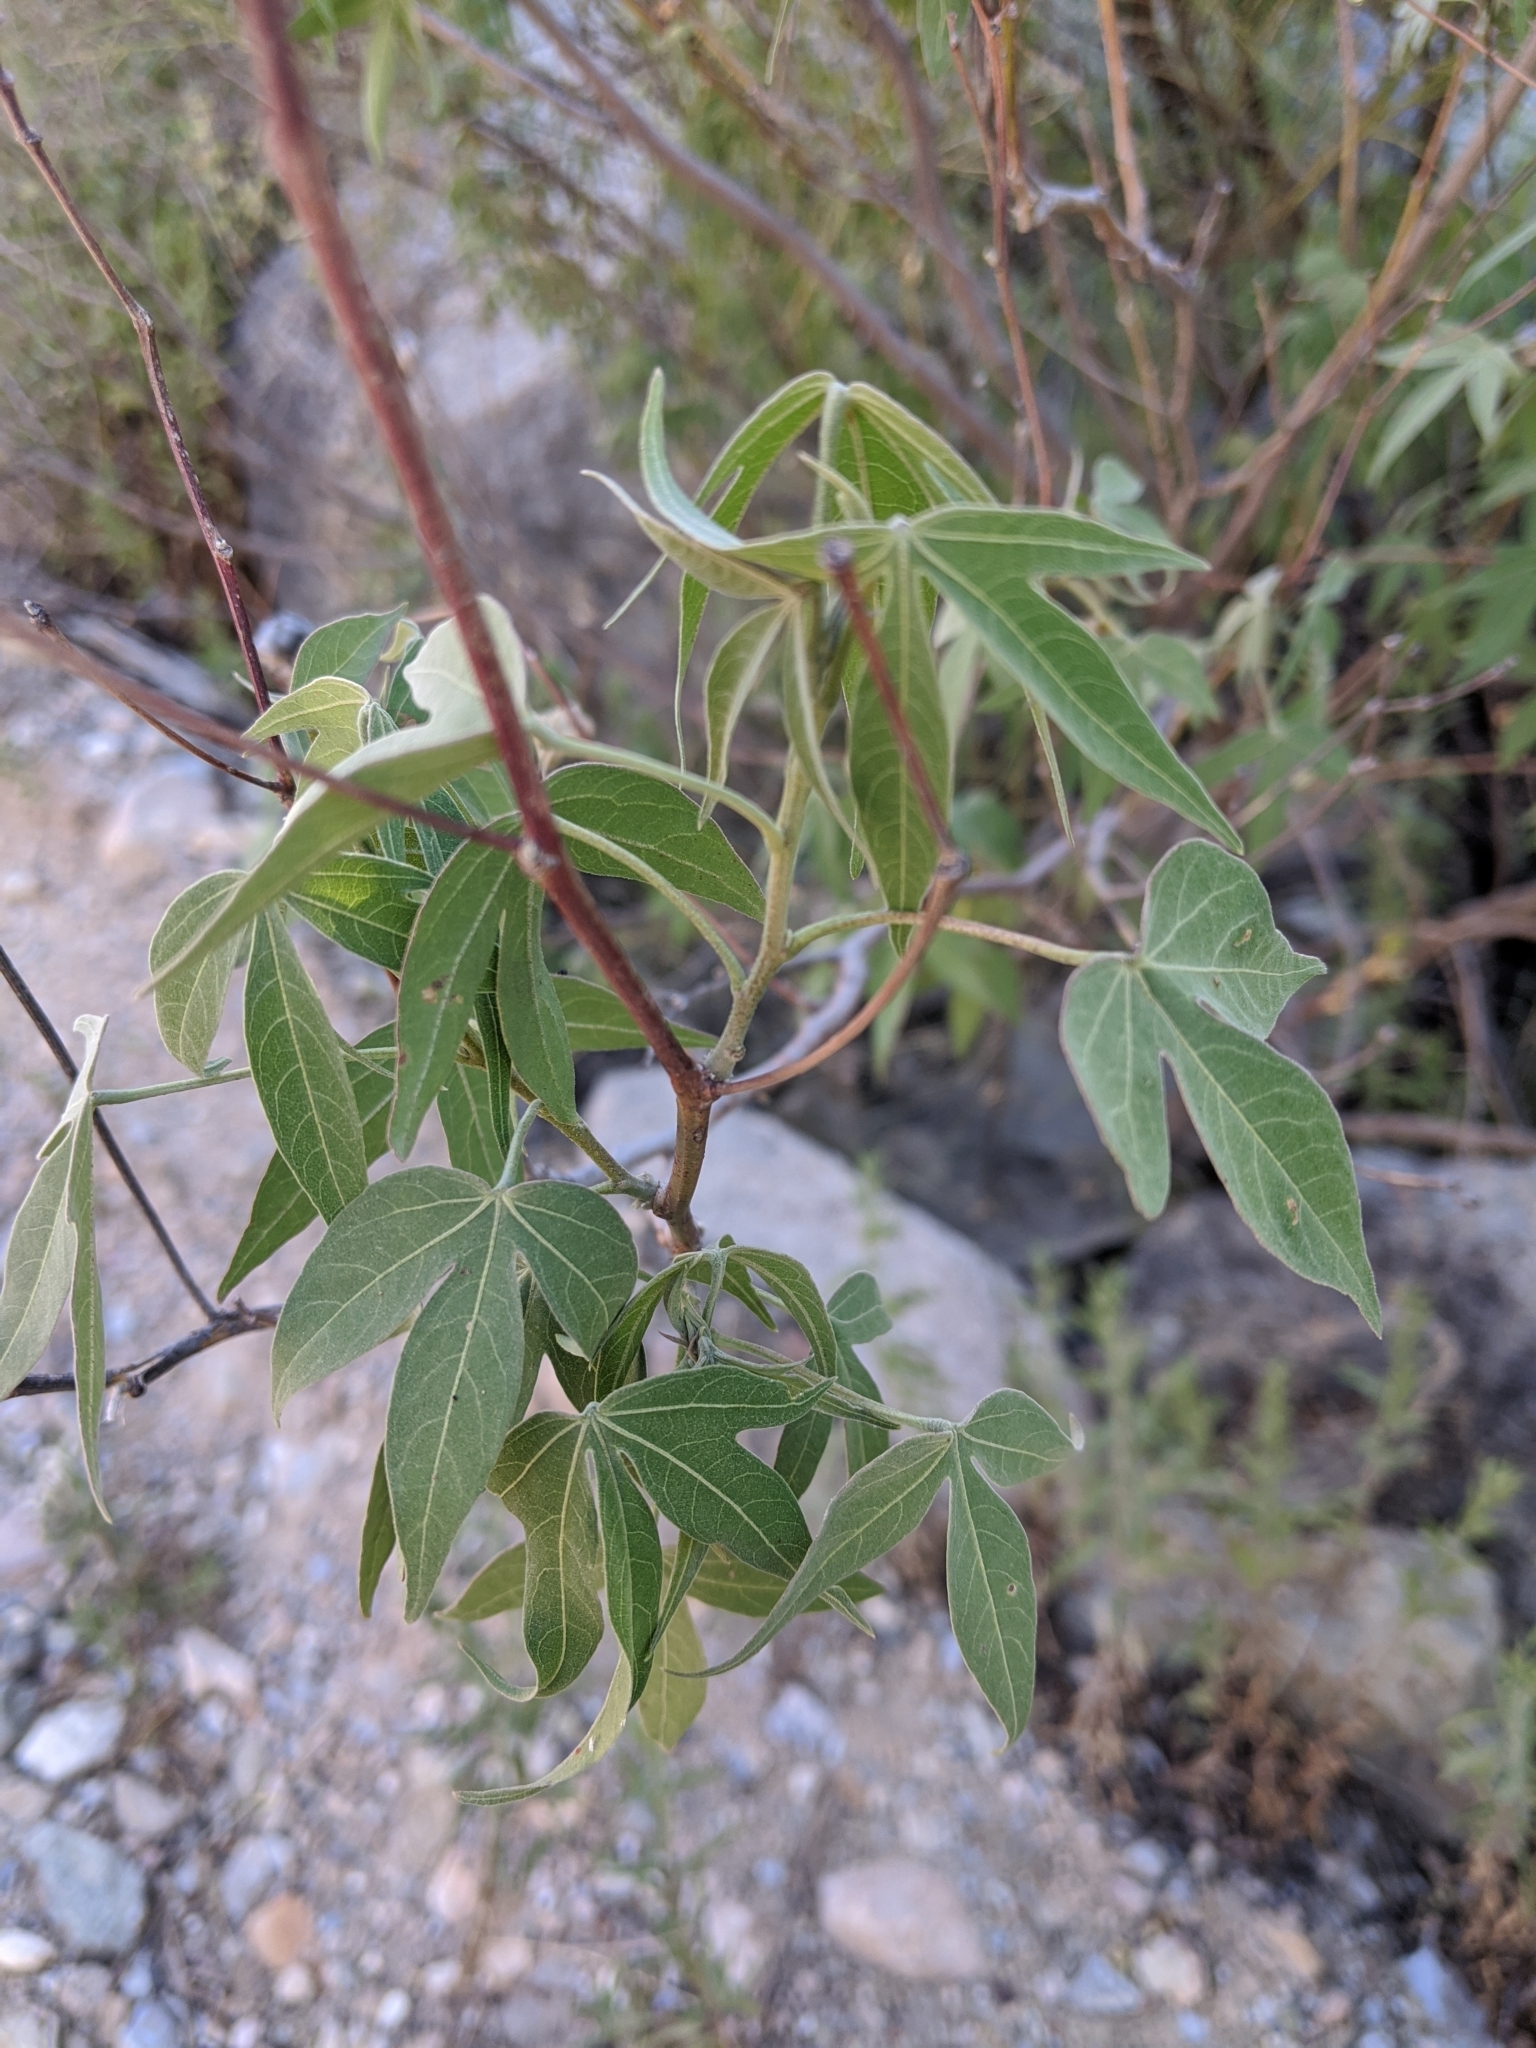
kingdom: Plantae
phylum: Tracheophyta
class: Magnoliopsida
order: Malvales
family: Malvaceae
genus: Gossypium
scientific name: Gossypium thurberi
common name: Desert cotton
